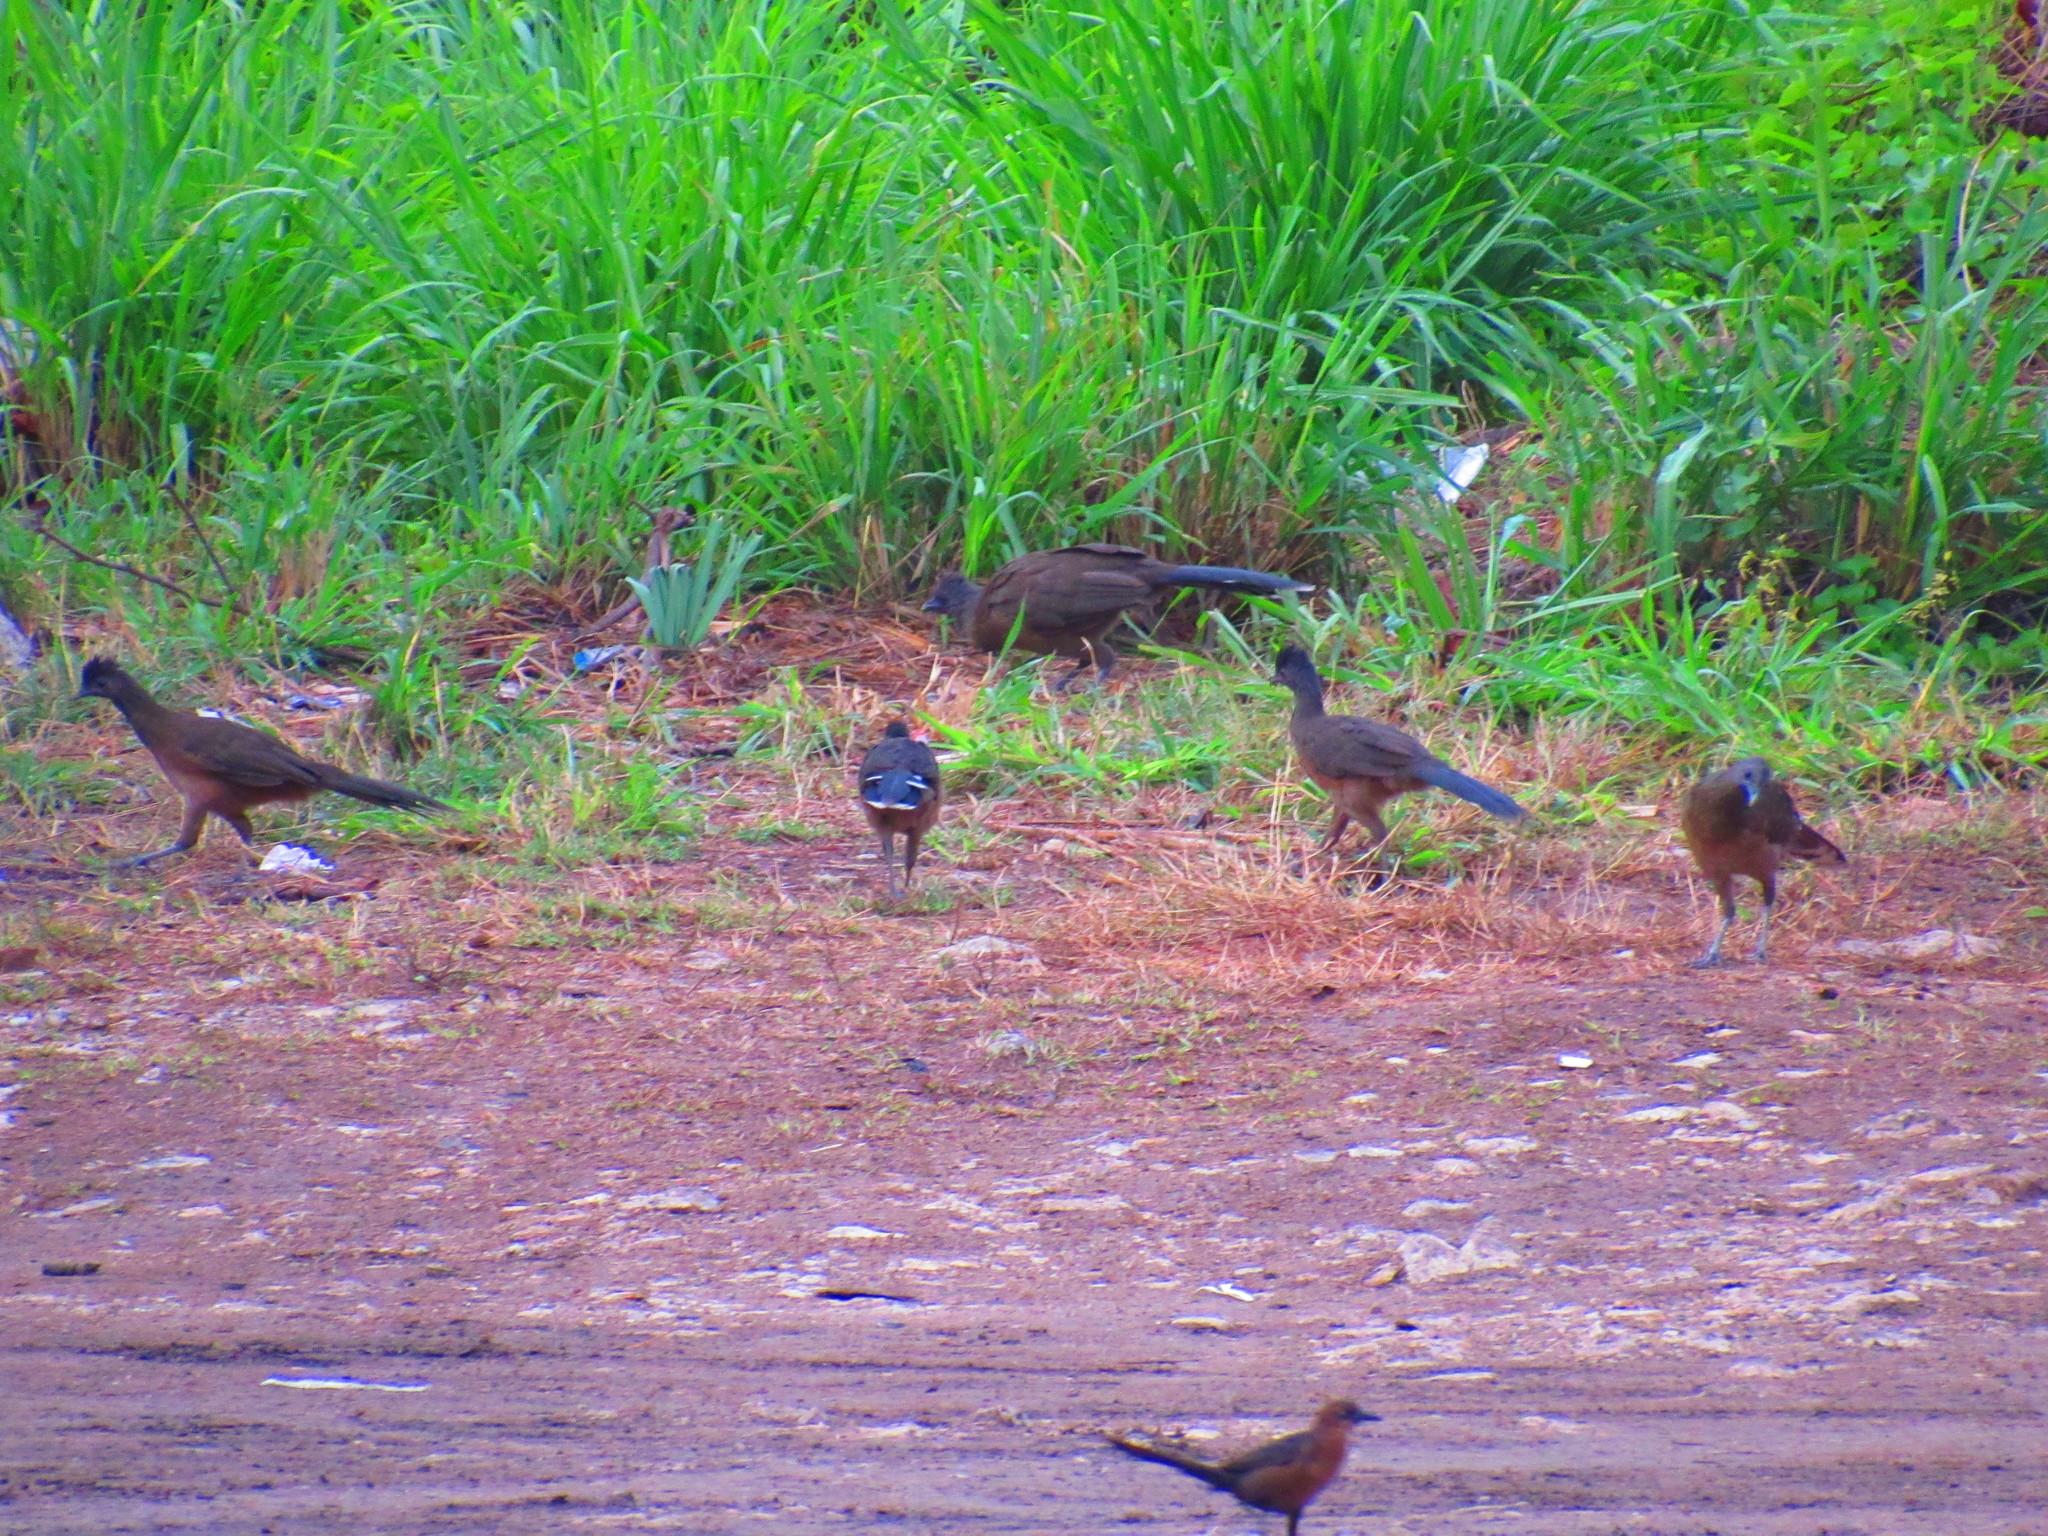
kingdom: Animalia
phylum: Chordata
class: Aves
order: Galliformes
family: Cracidae
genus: Ortalis
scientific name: Ortalis vetula
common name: Plain chachalaca
